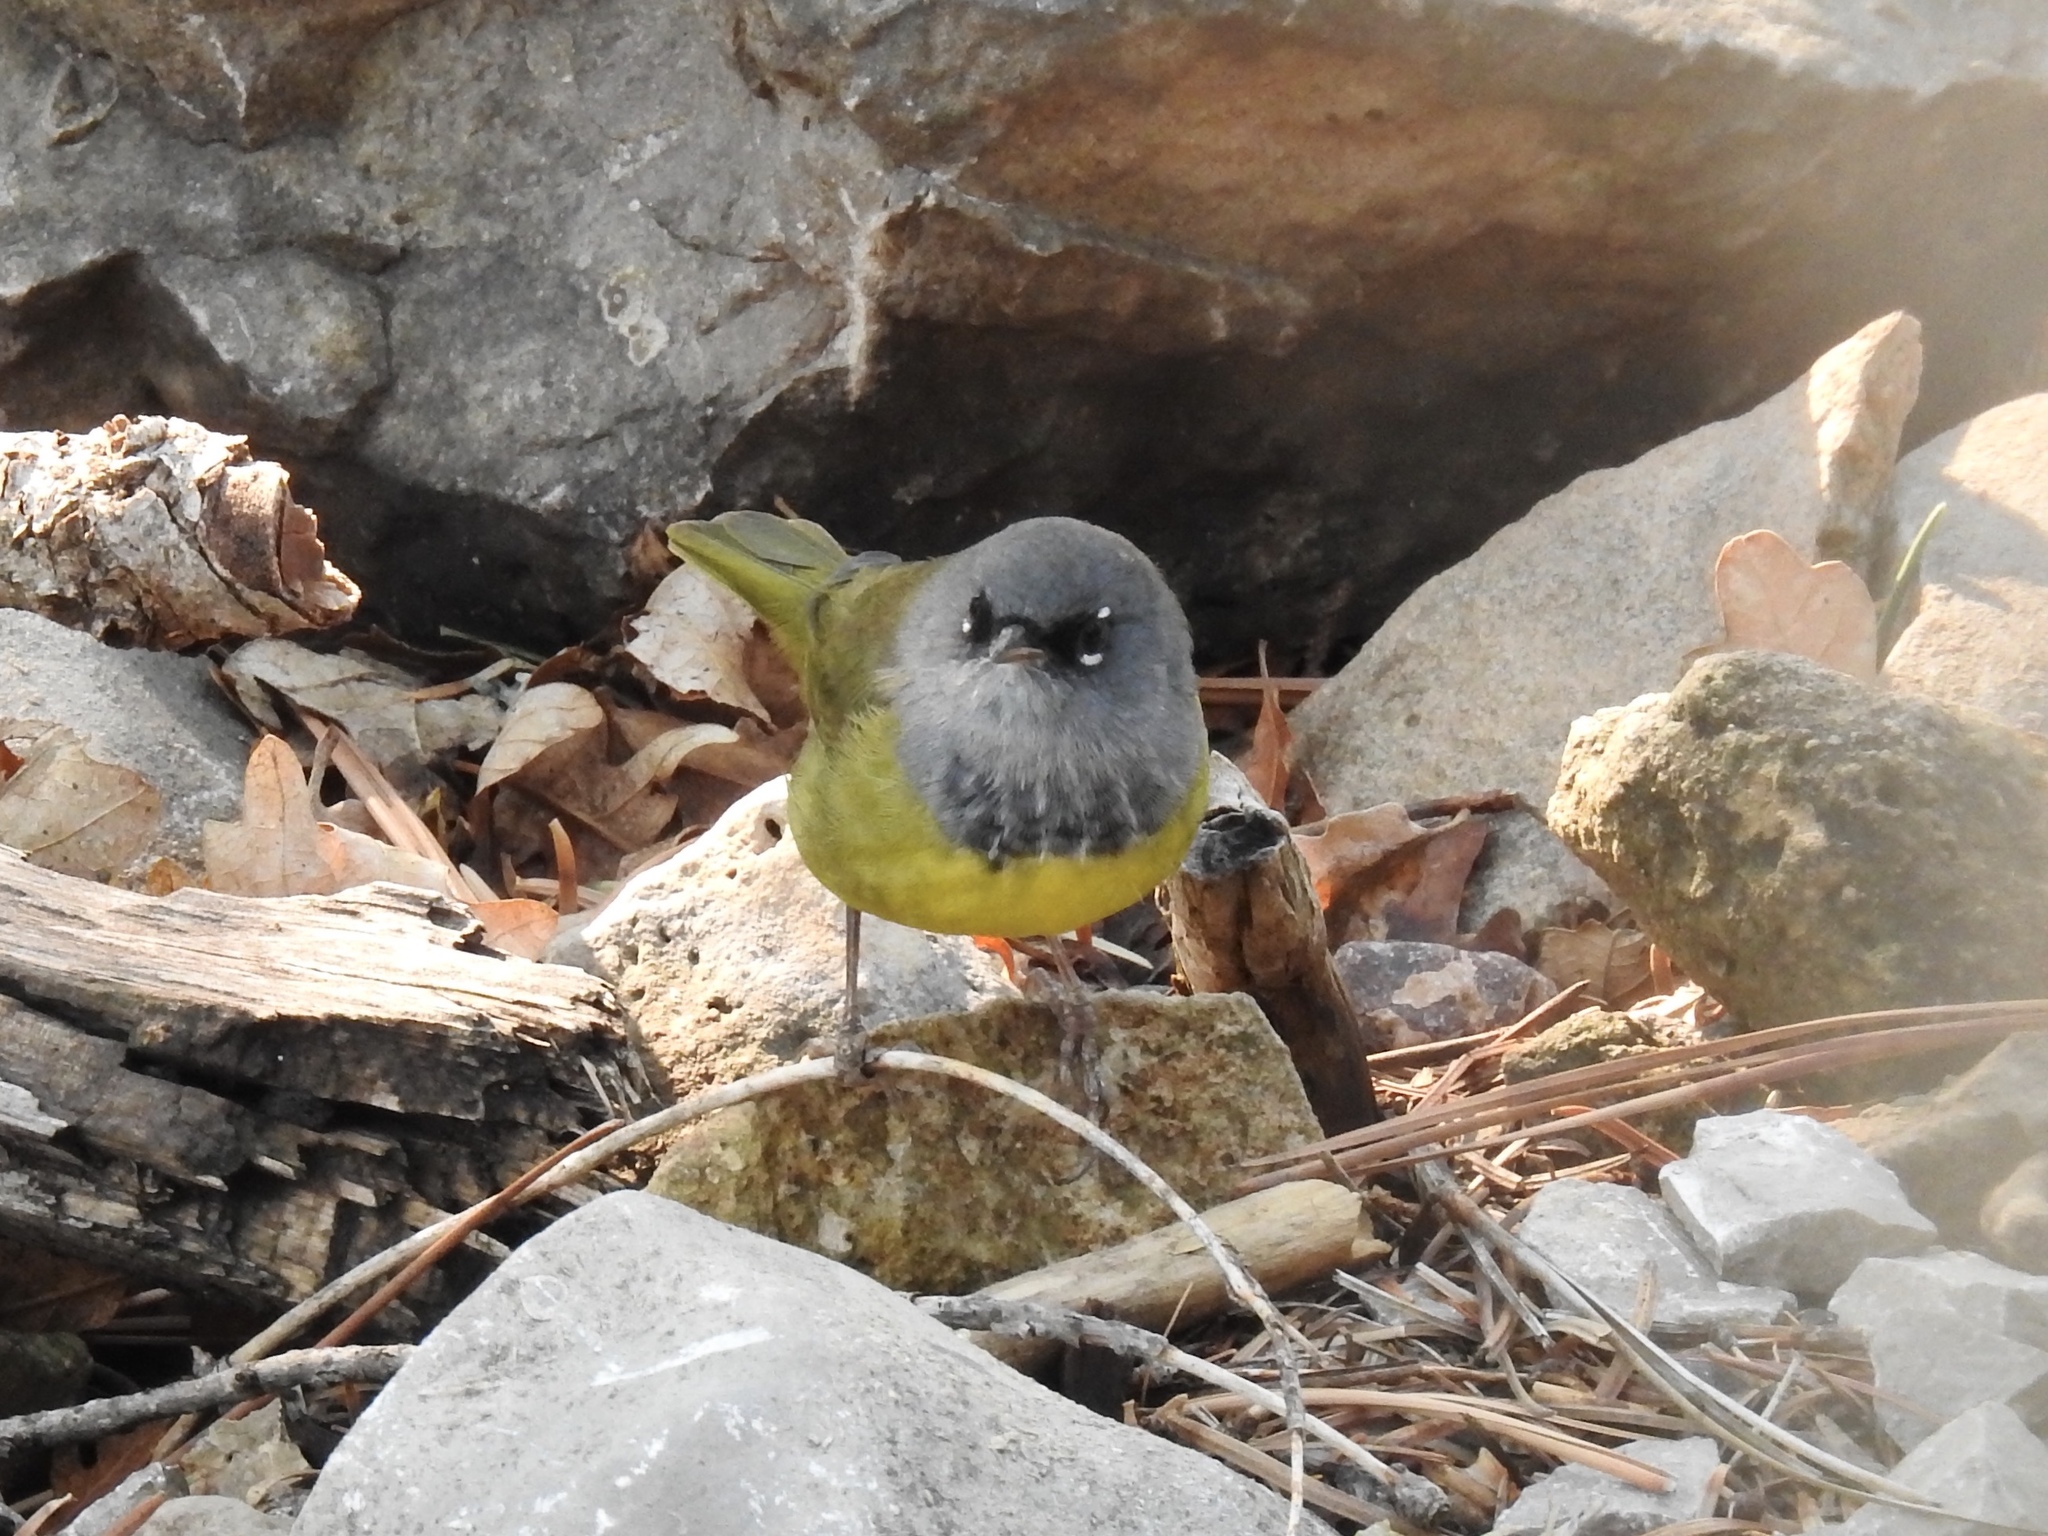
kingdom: Animalia
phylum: Chordata
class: Aves
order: Passeriformes
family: Parulidae
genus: Geothlypis
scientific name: Geothlypis tolmiei
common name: Macgillivray's warbler
